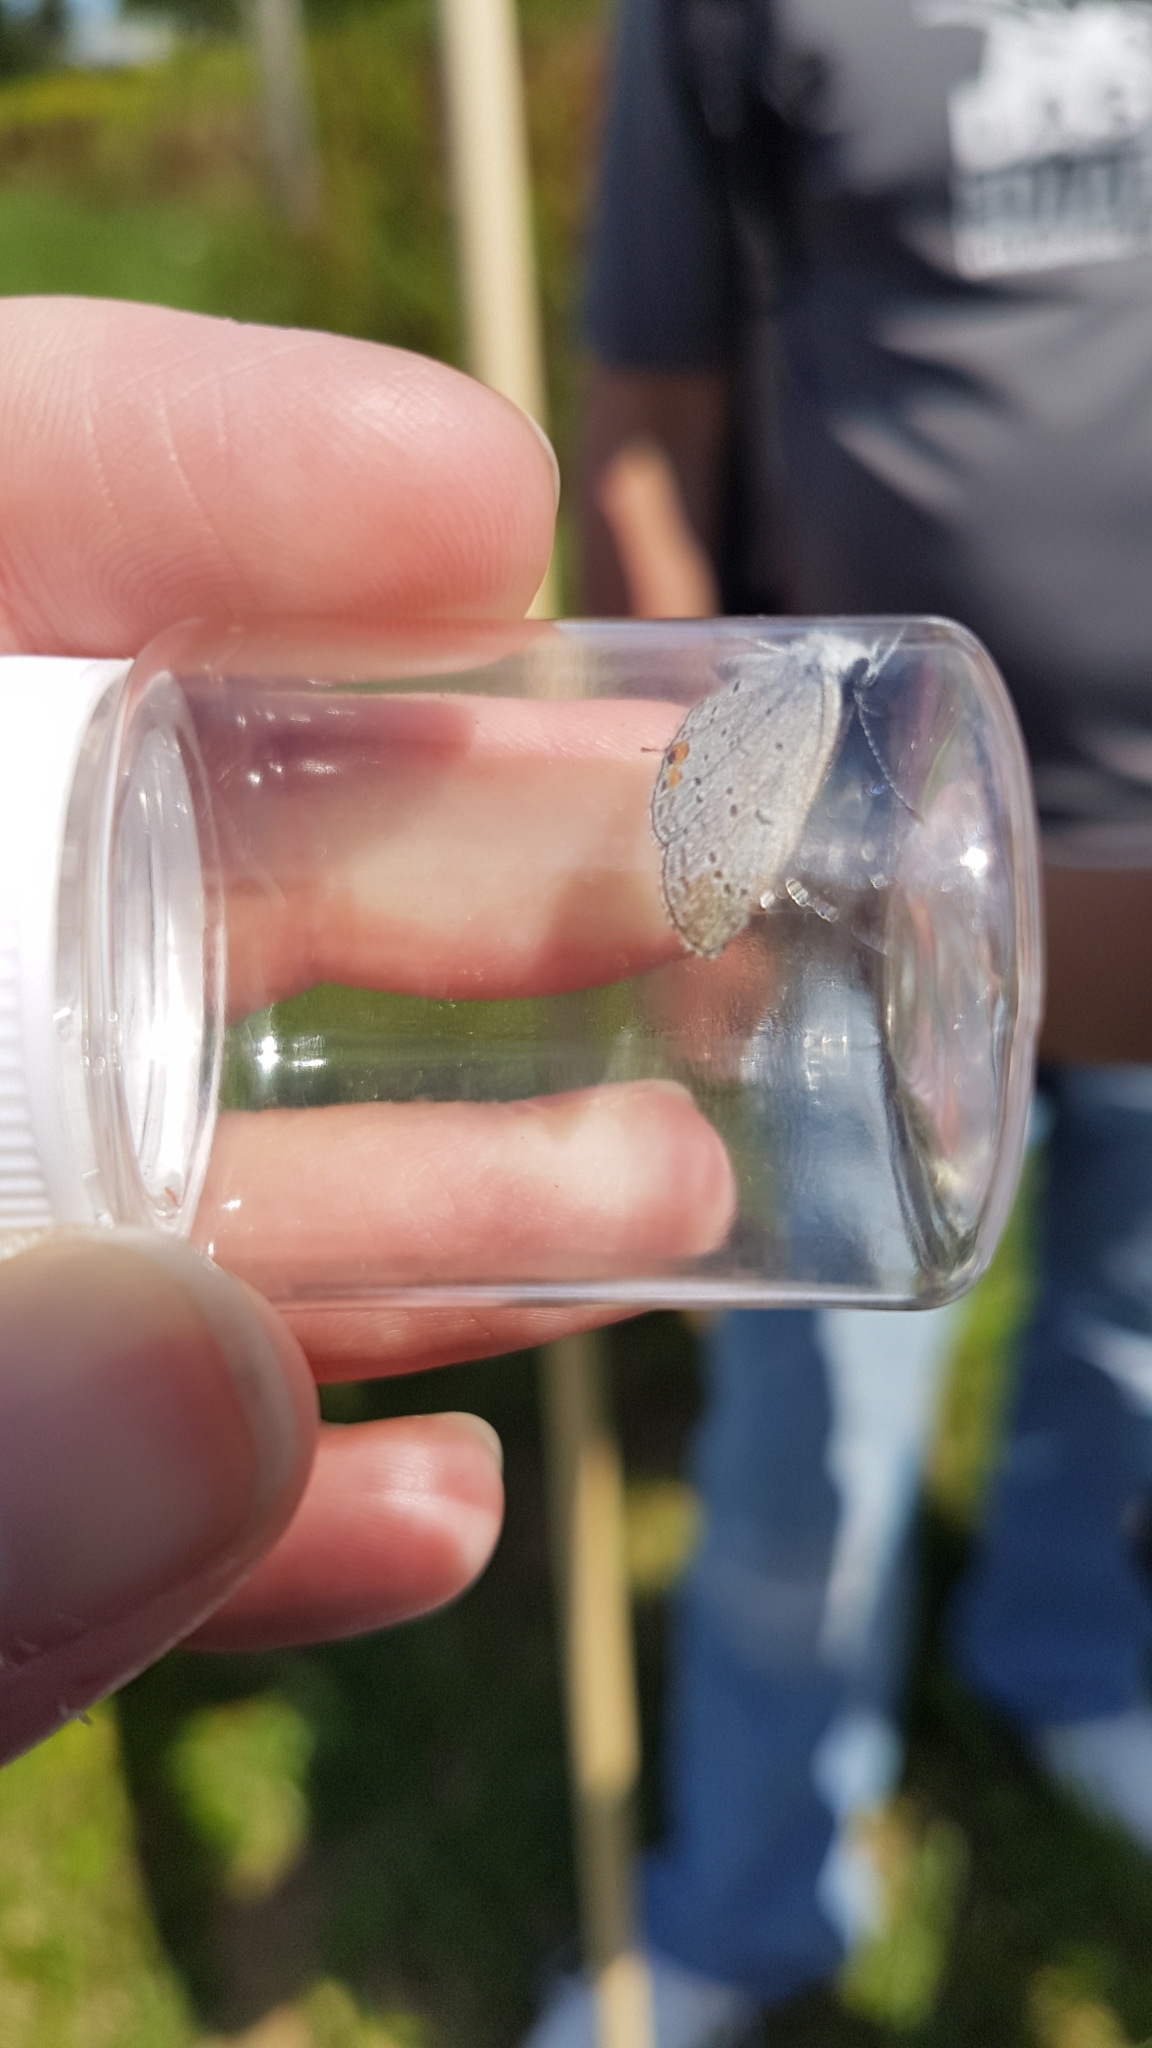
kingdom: Animalia
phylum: Arthropoda
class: Insecta
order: Lepidoptera
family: Lycaenidae
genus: Elkalyce
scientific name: Elkalyce comyntas
